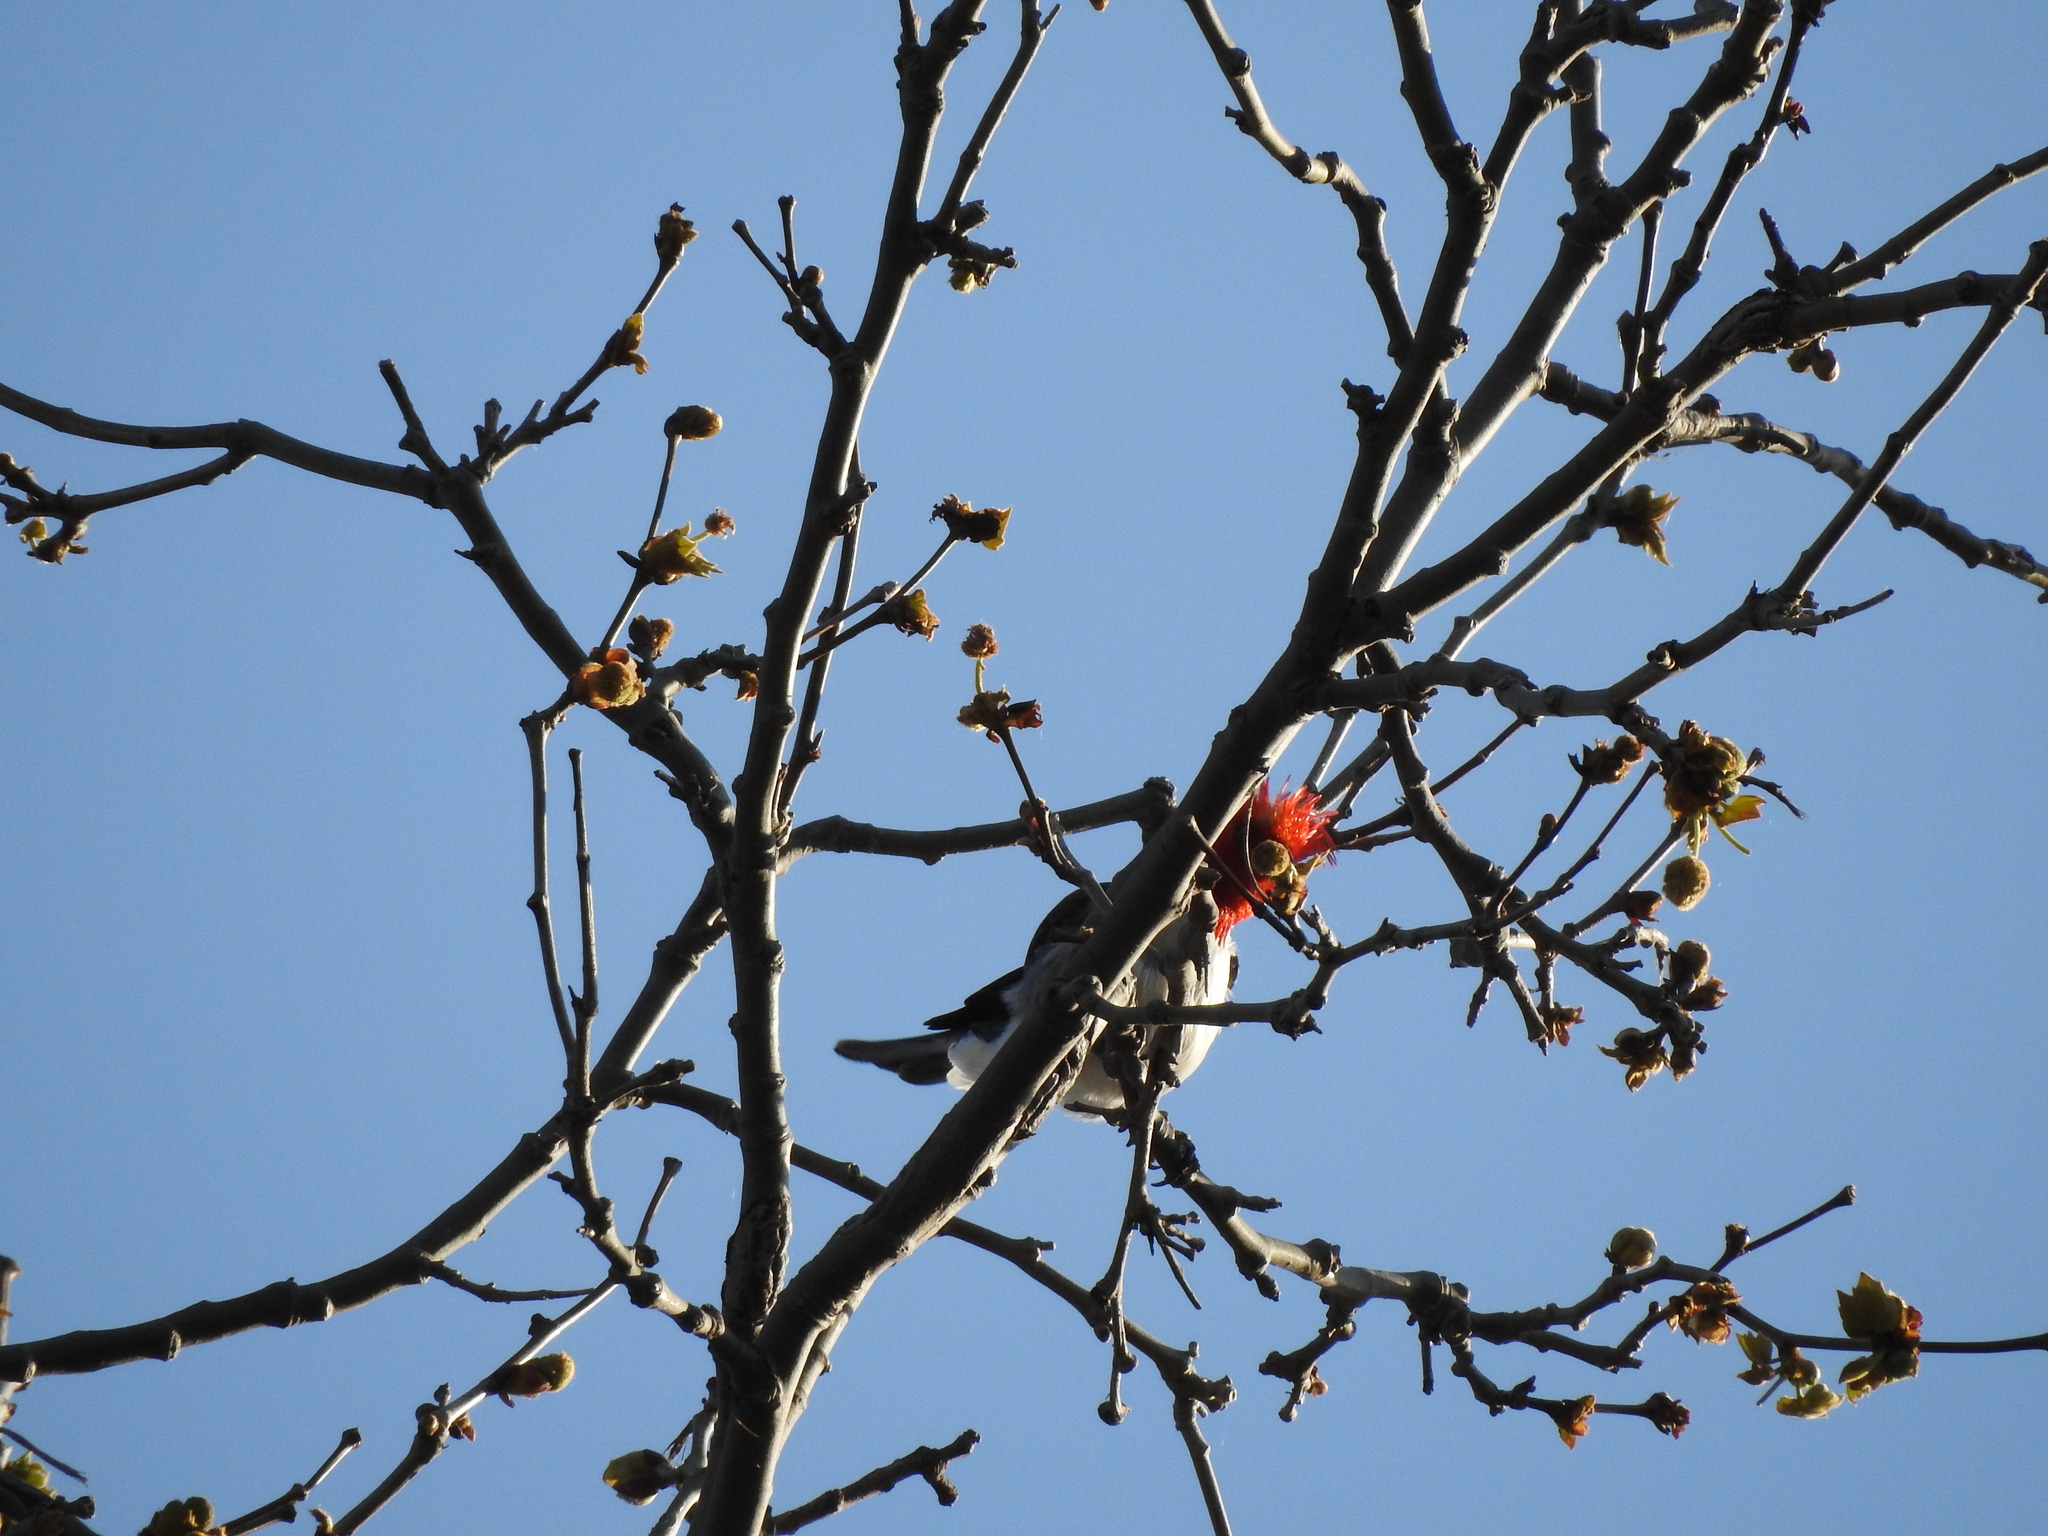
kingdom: Animalia
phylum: Chordata
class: Aves
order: Passeriformes
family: Thraupidae
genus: Paroaria
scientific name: Paroaria coronata
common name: Red-crested cardinal
